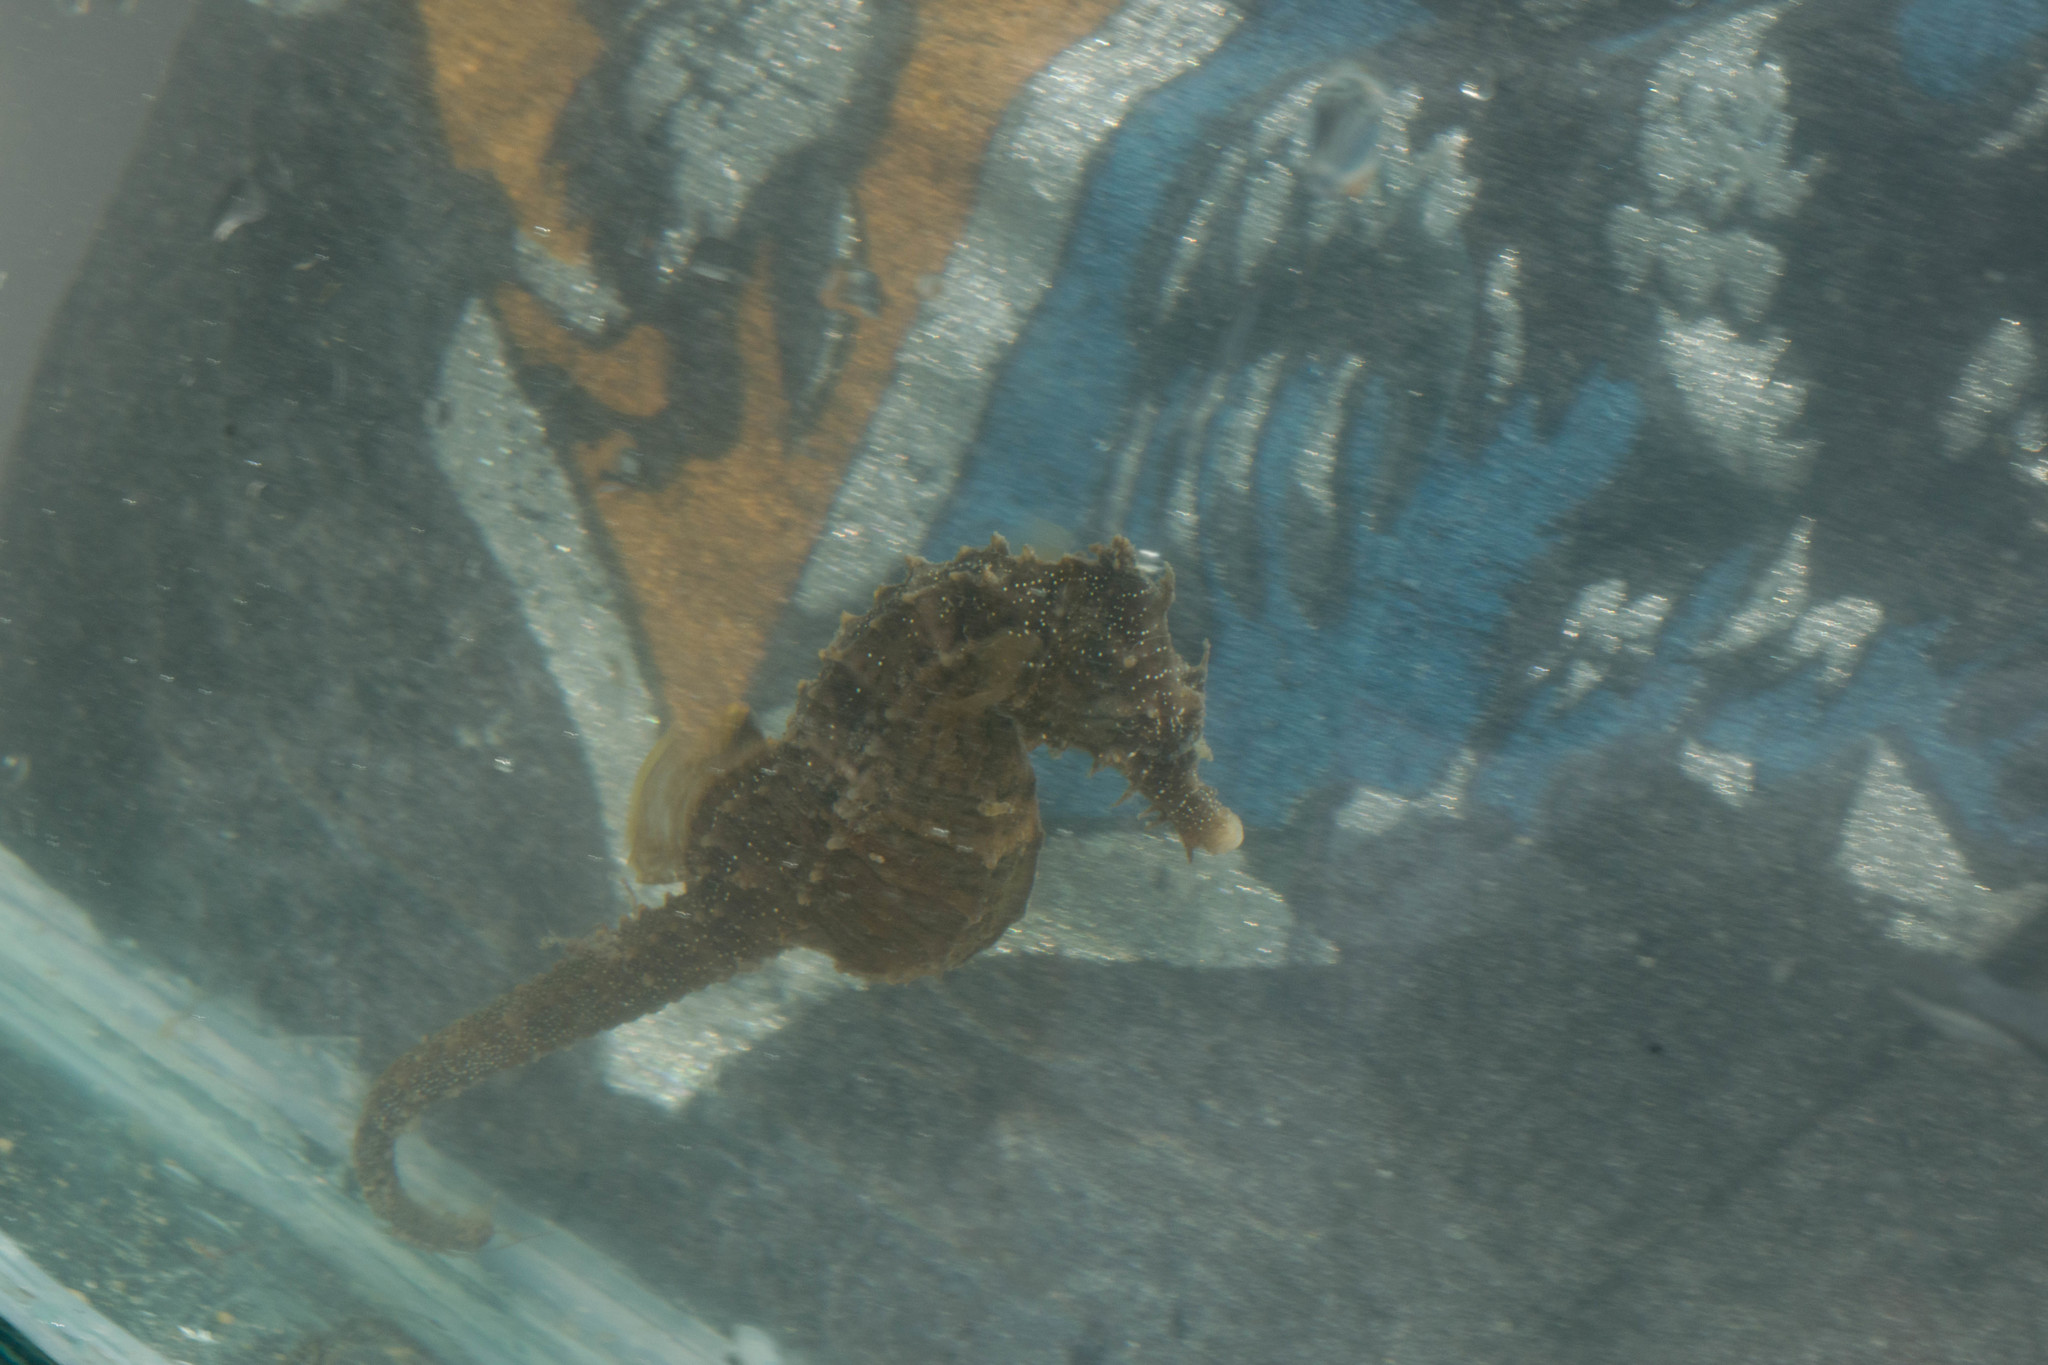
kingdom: Animalia
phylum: Chordata
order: Syngnathiformes
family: Syngnathidae
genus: Hippocampus
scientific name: Hippocampus erectus
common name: Lined seahorse
